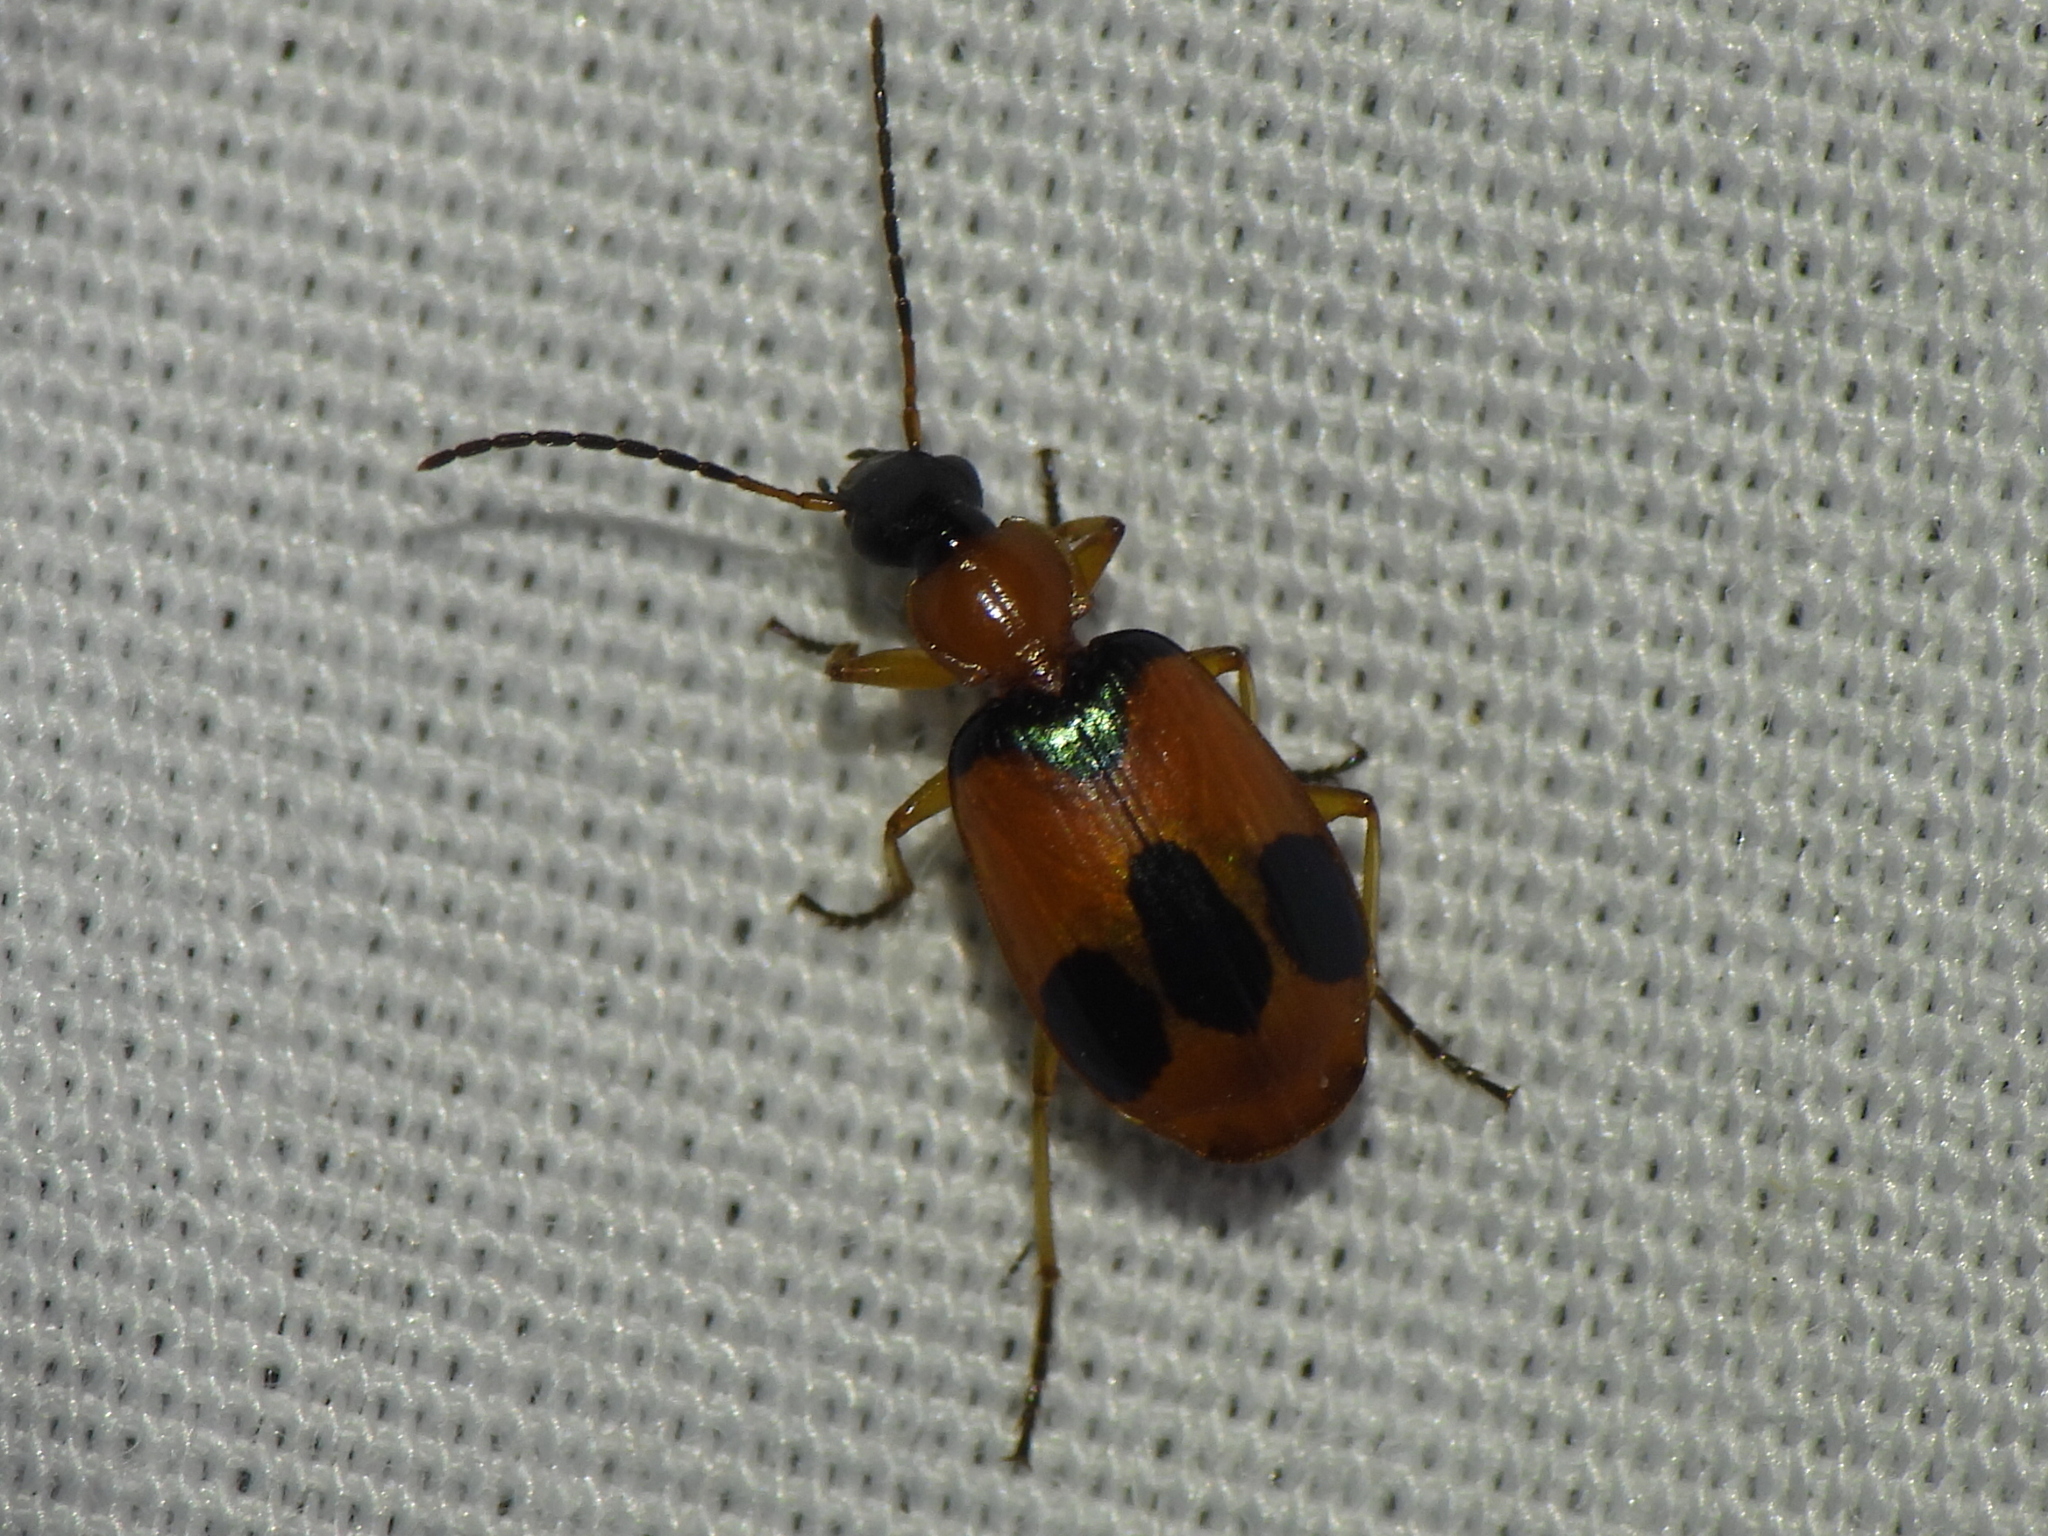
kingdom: Animalia
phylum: Arthropoda
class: Insecta
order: Coleoptera
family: Carabidae
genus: Lebia
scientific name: Lebia pulchella
